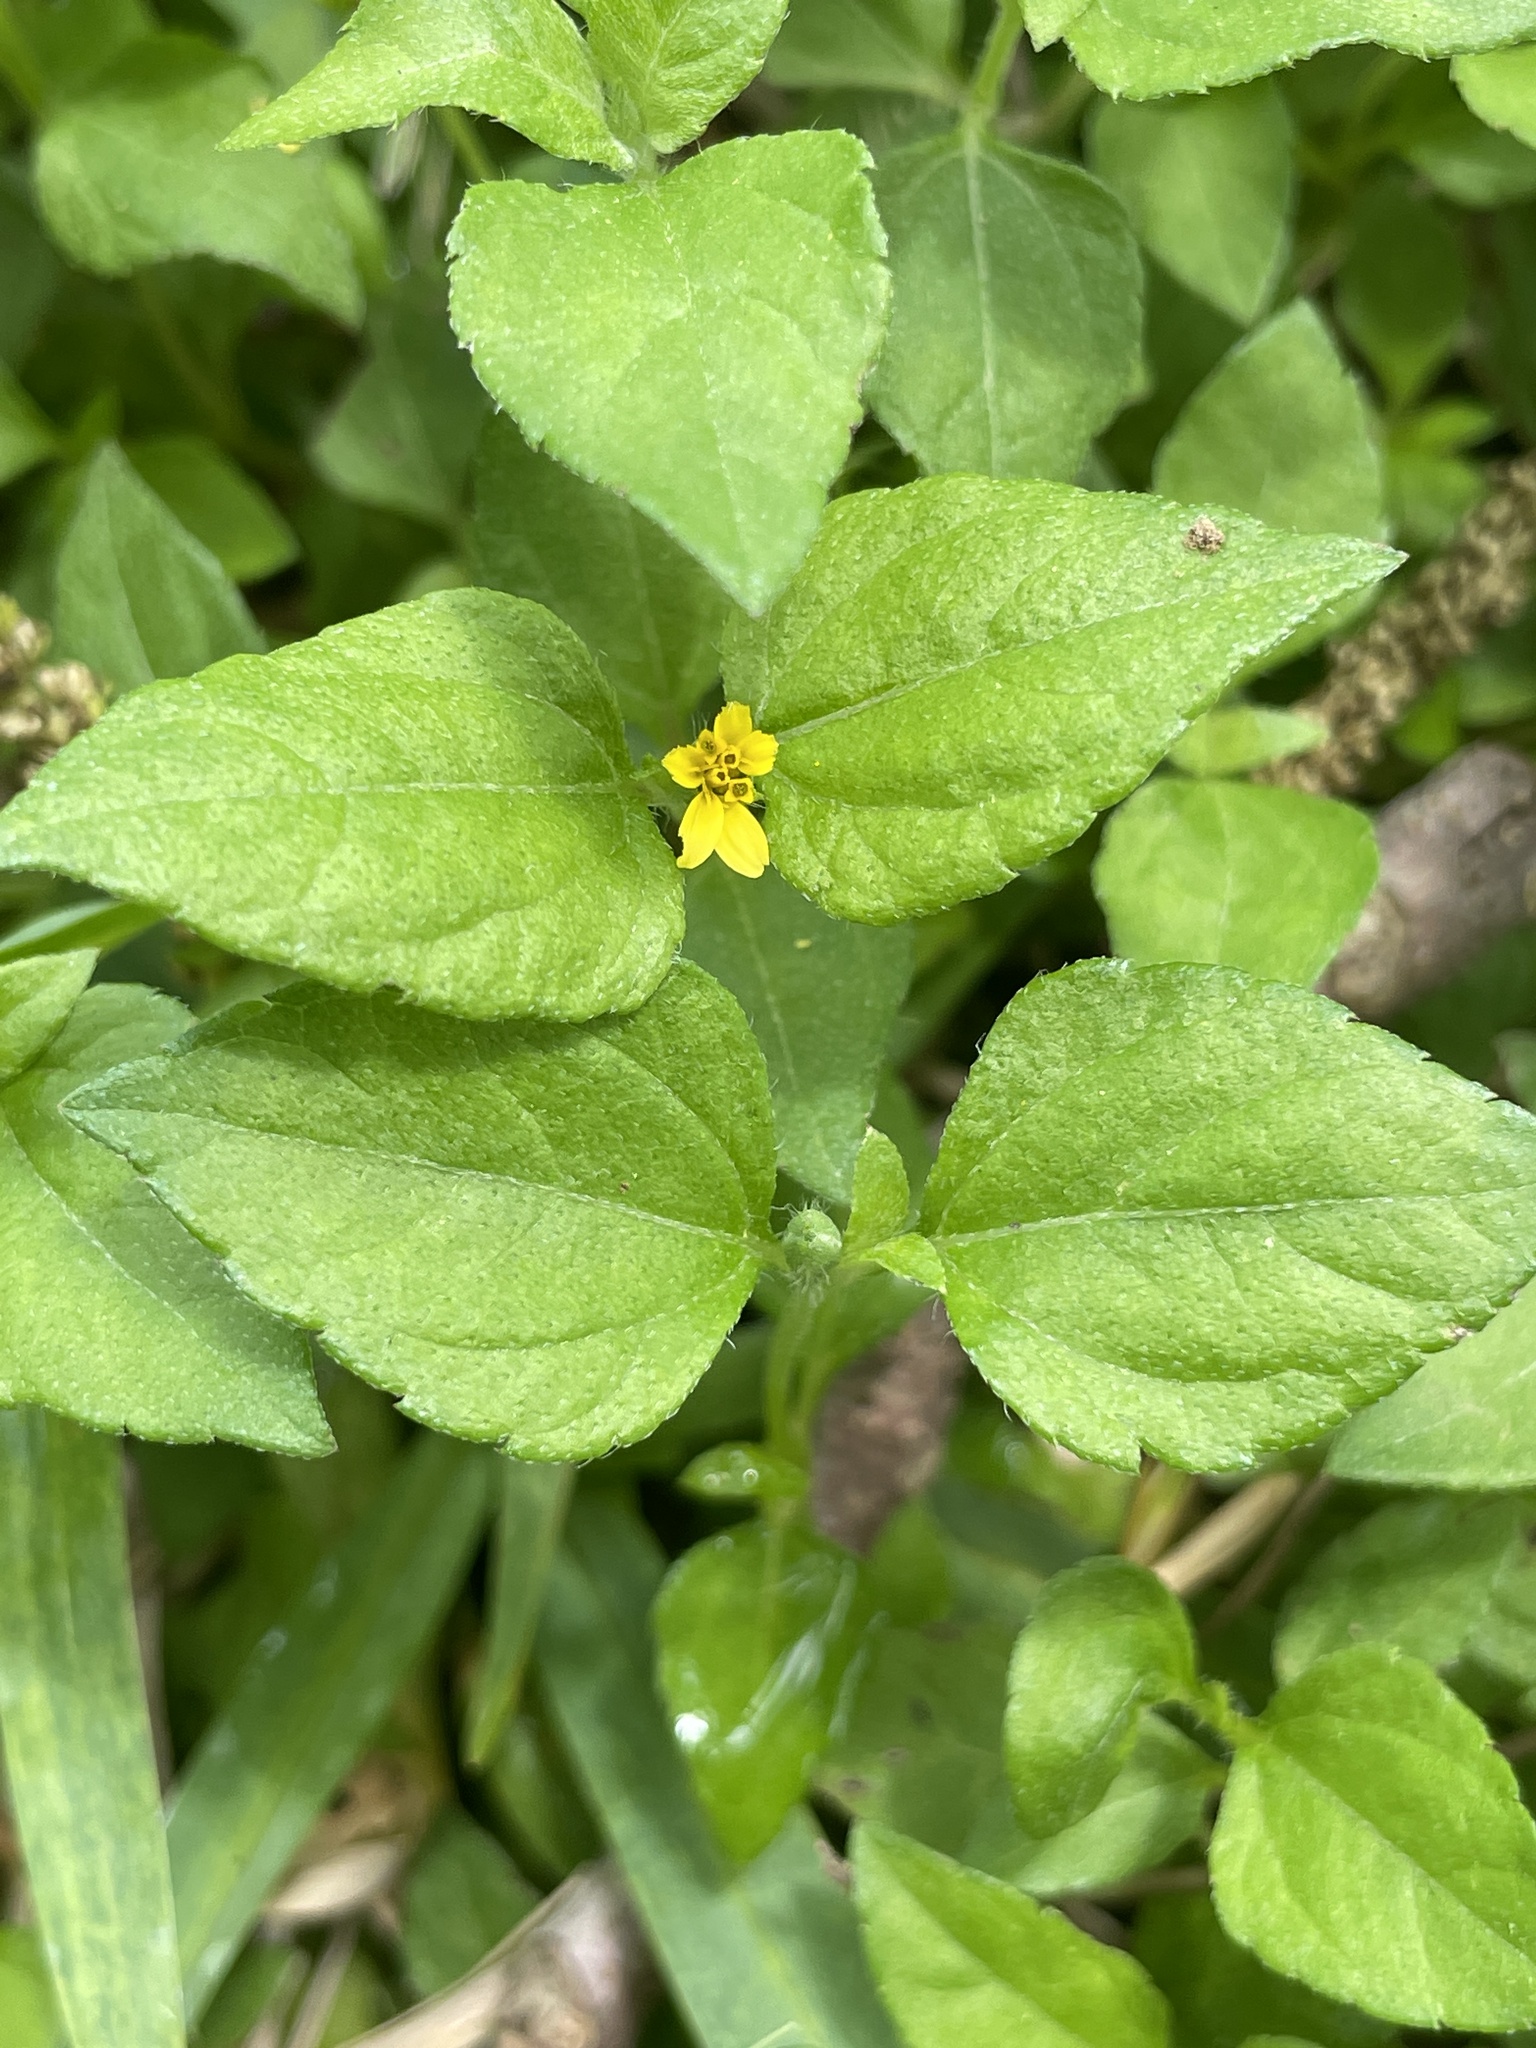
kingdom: Plantae
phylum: Tracheophyta
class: Magnoliopsida
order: Asterales
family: Asteraceae
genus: Calyptocarpus
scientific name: Calyptocarpus vialis
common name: Straggler daisy
